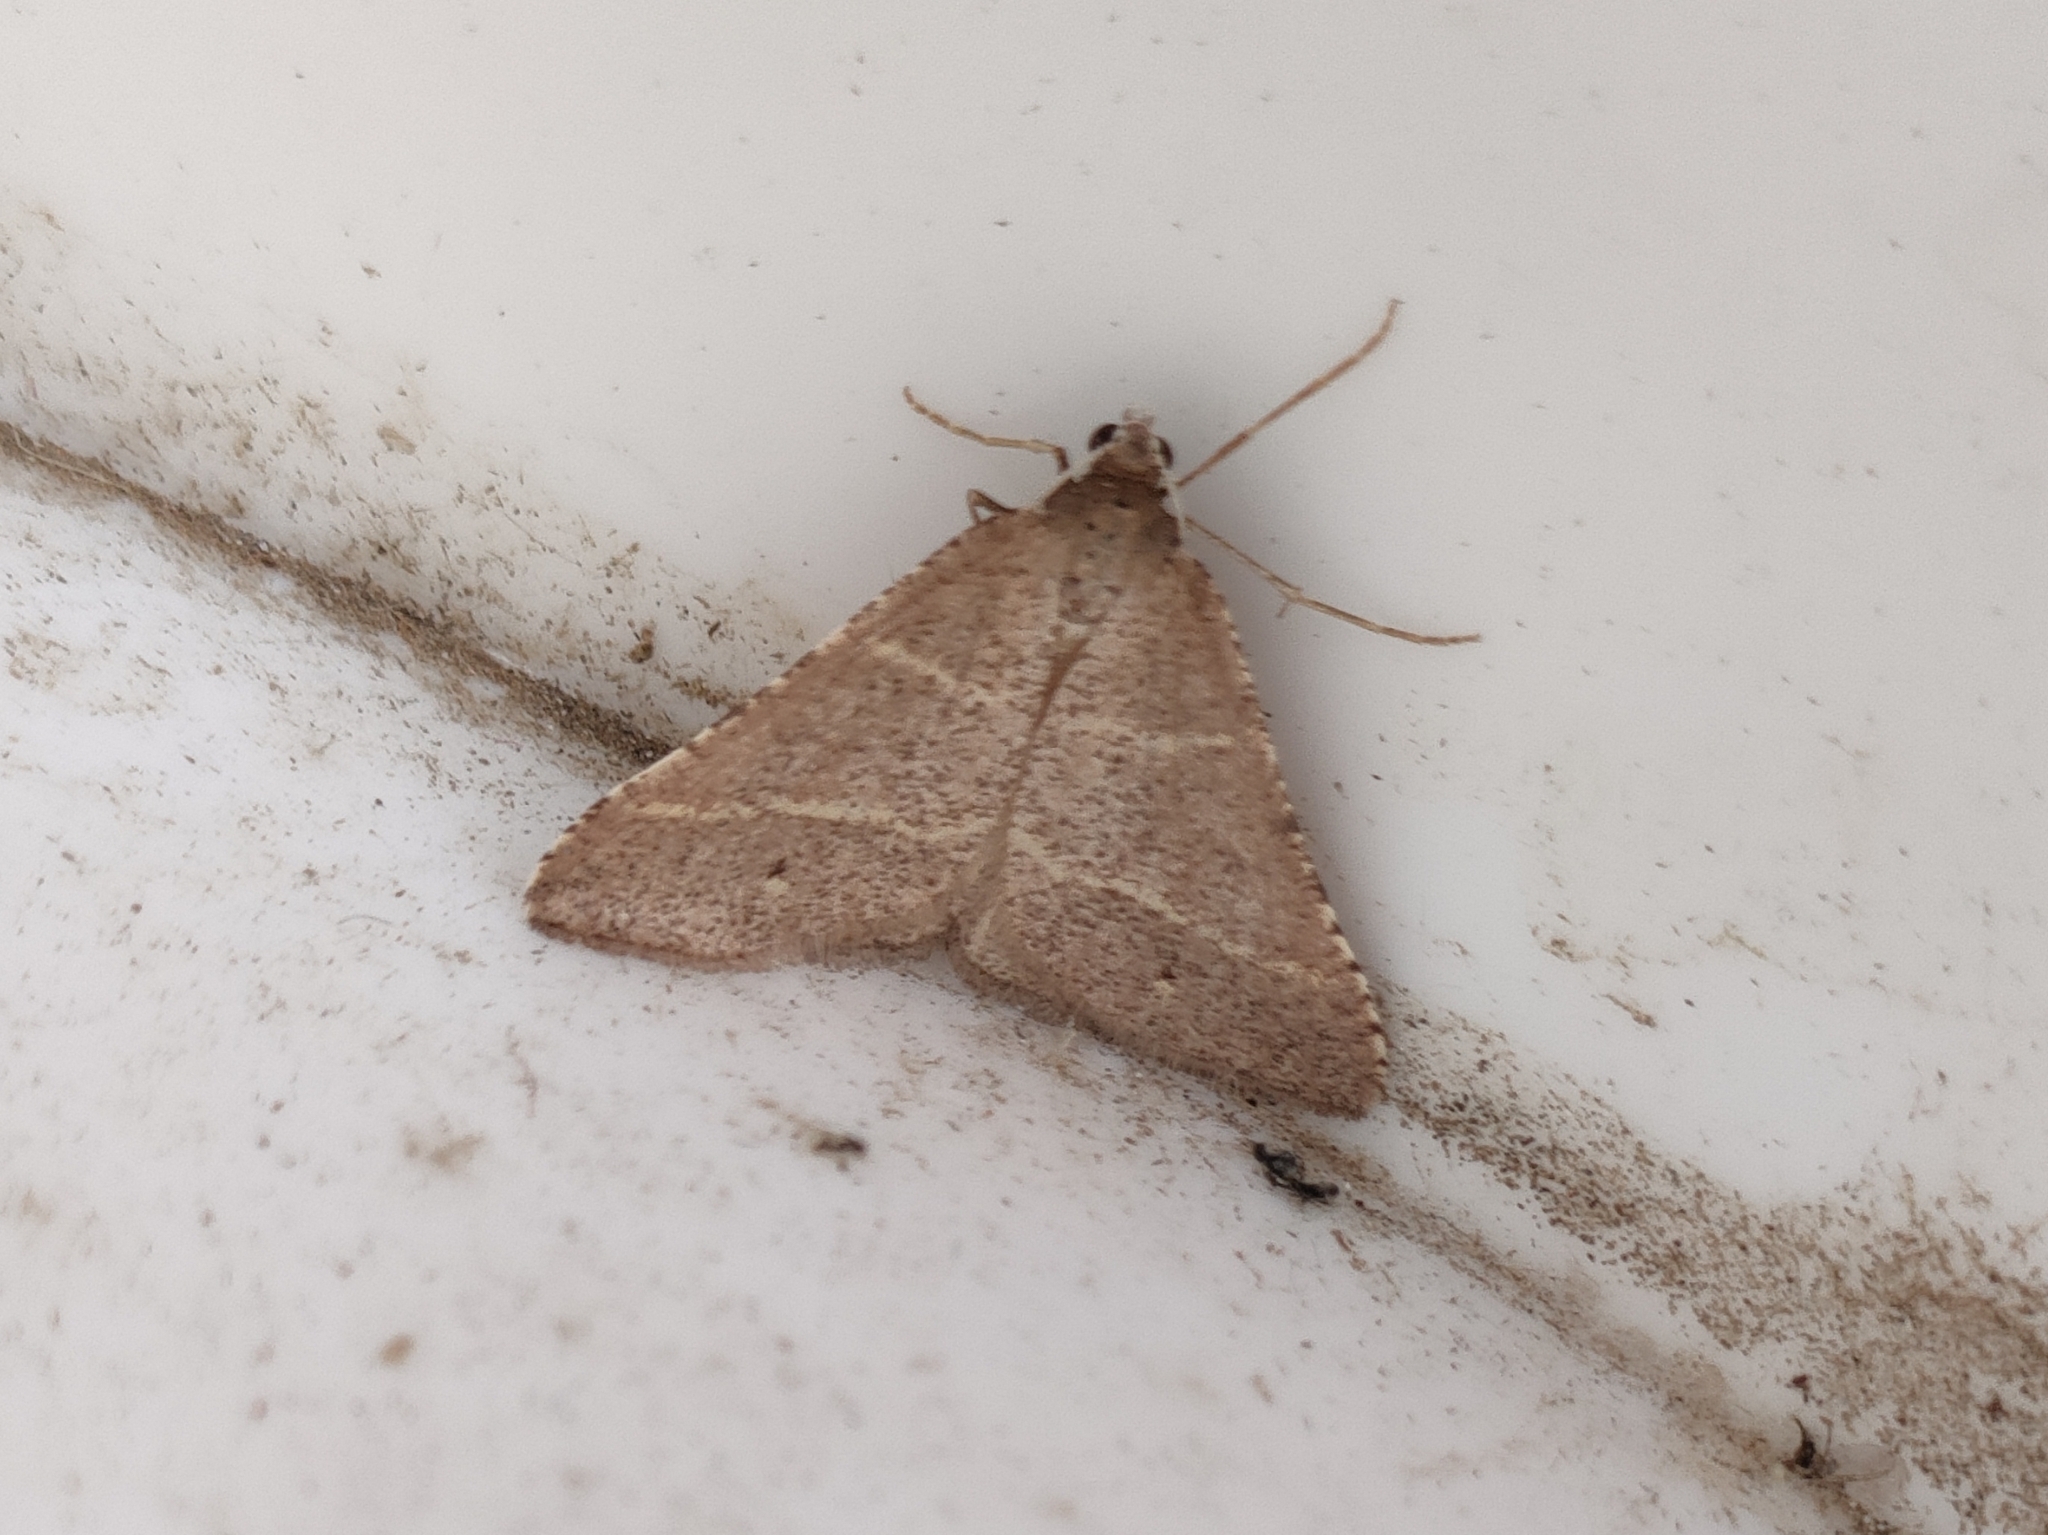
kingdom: Animalia
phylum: Arthropoda
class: Insecta
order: Lepidoptera
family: Pterophoridae
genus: Pterophorus
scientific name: Pterophorus Petrophora narbonea
